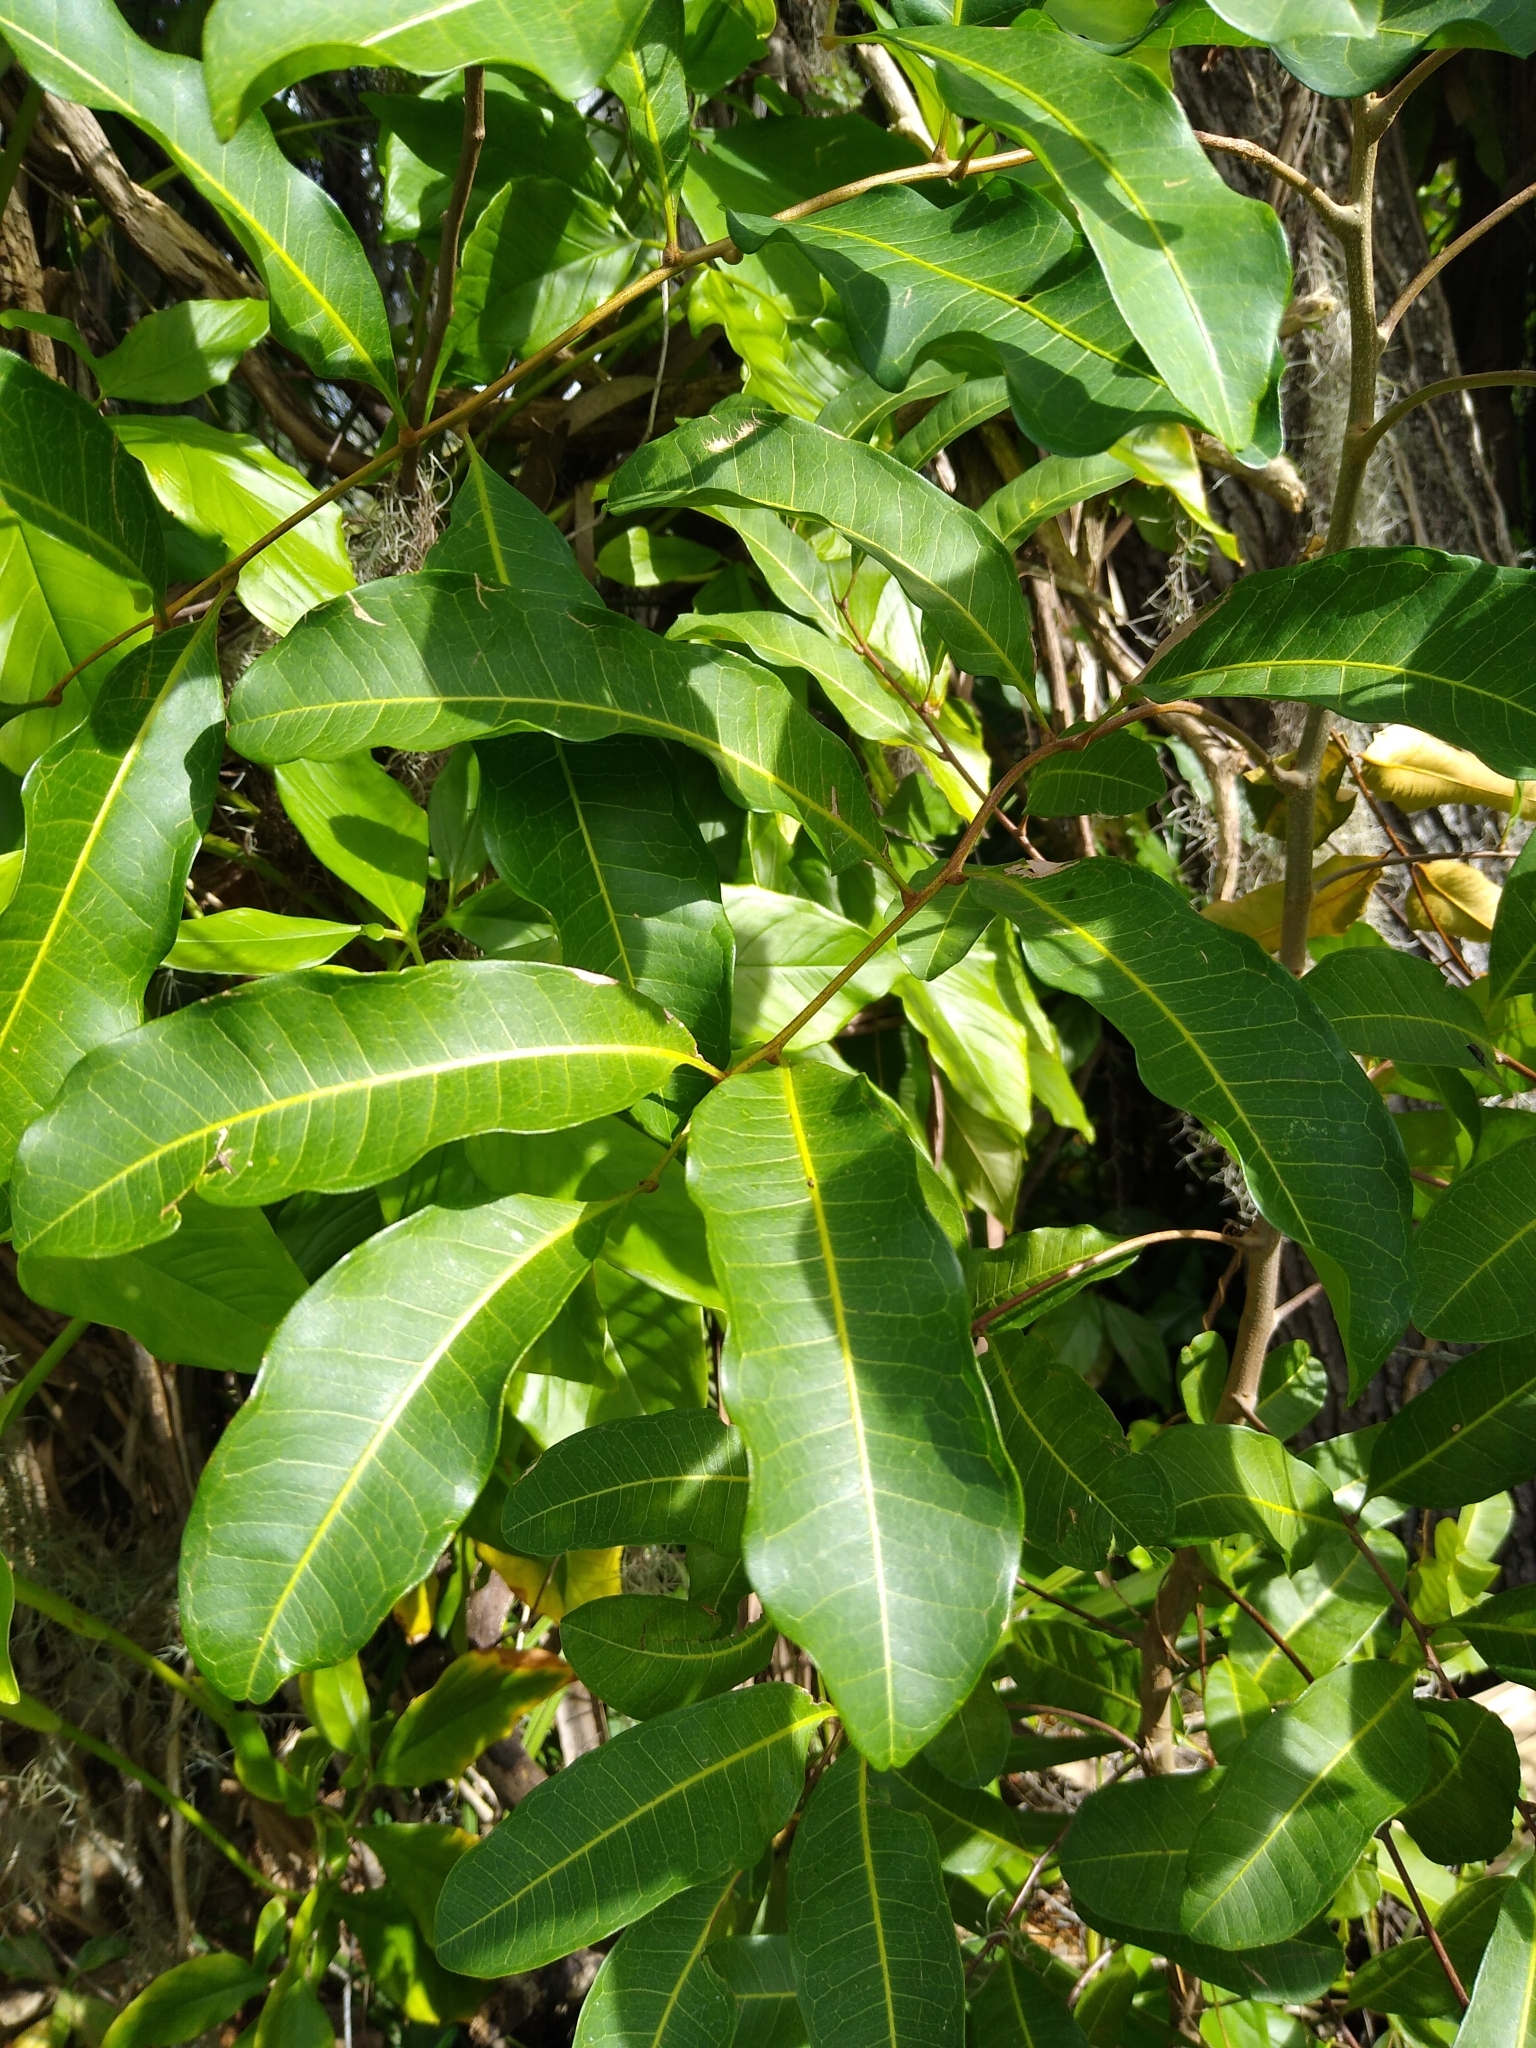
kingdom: Plantae
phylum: Tracheophyta
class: Magnoliopsida
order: Sapindales
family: Sapindaceae
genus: Cupaniopsis
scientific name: Cupaniopsis anacardioides
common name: Carrotwood
